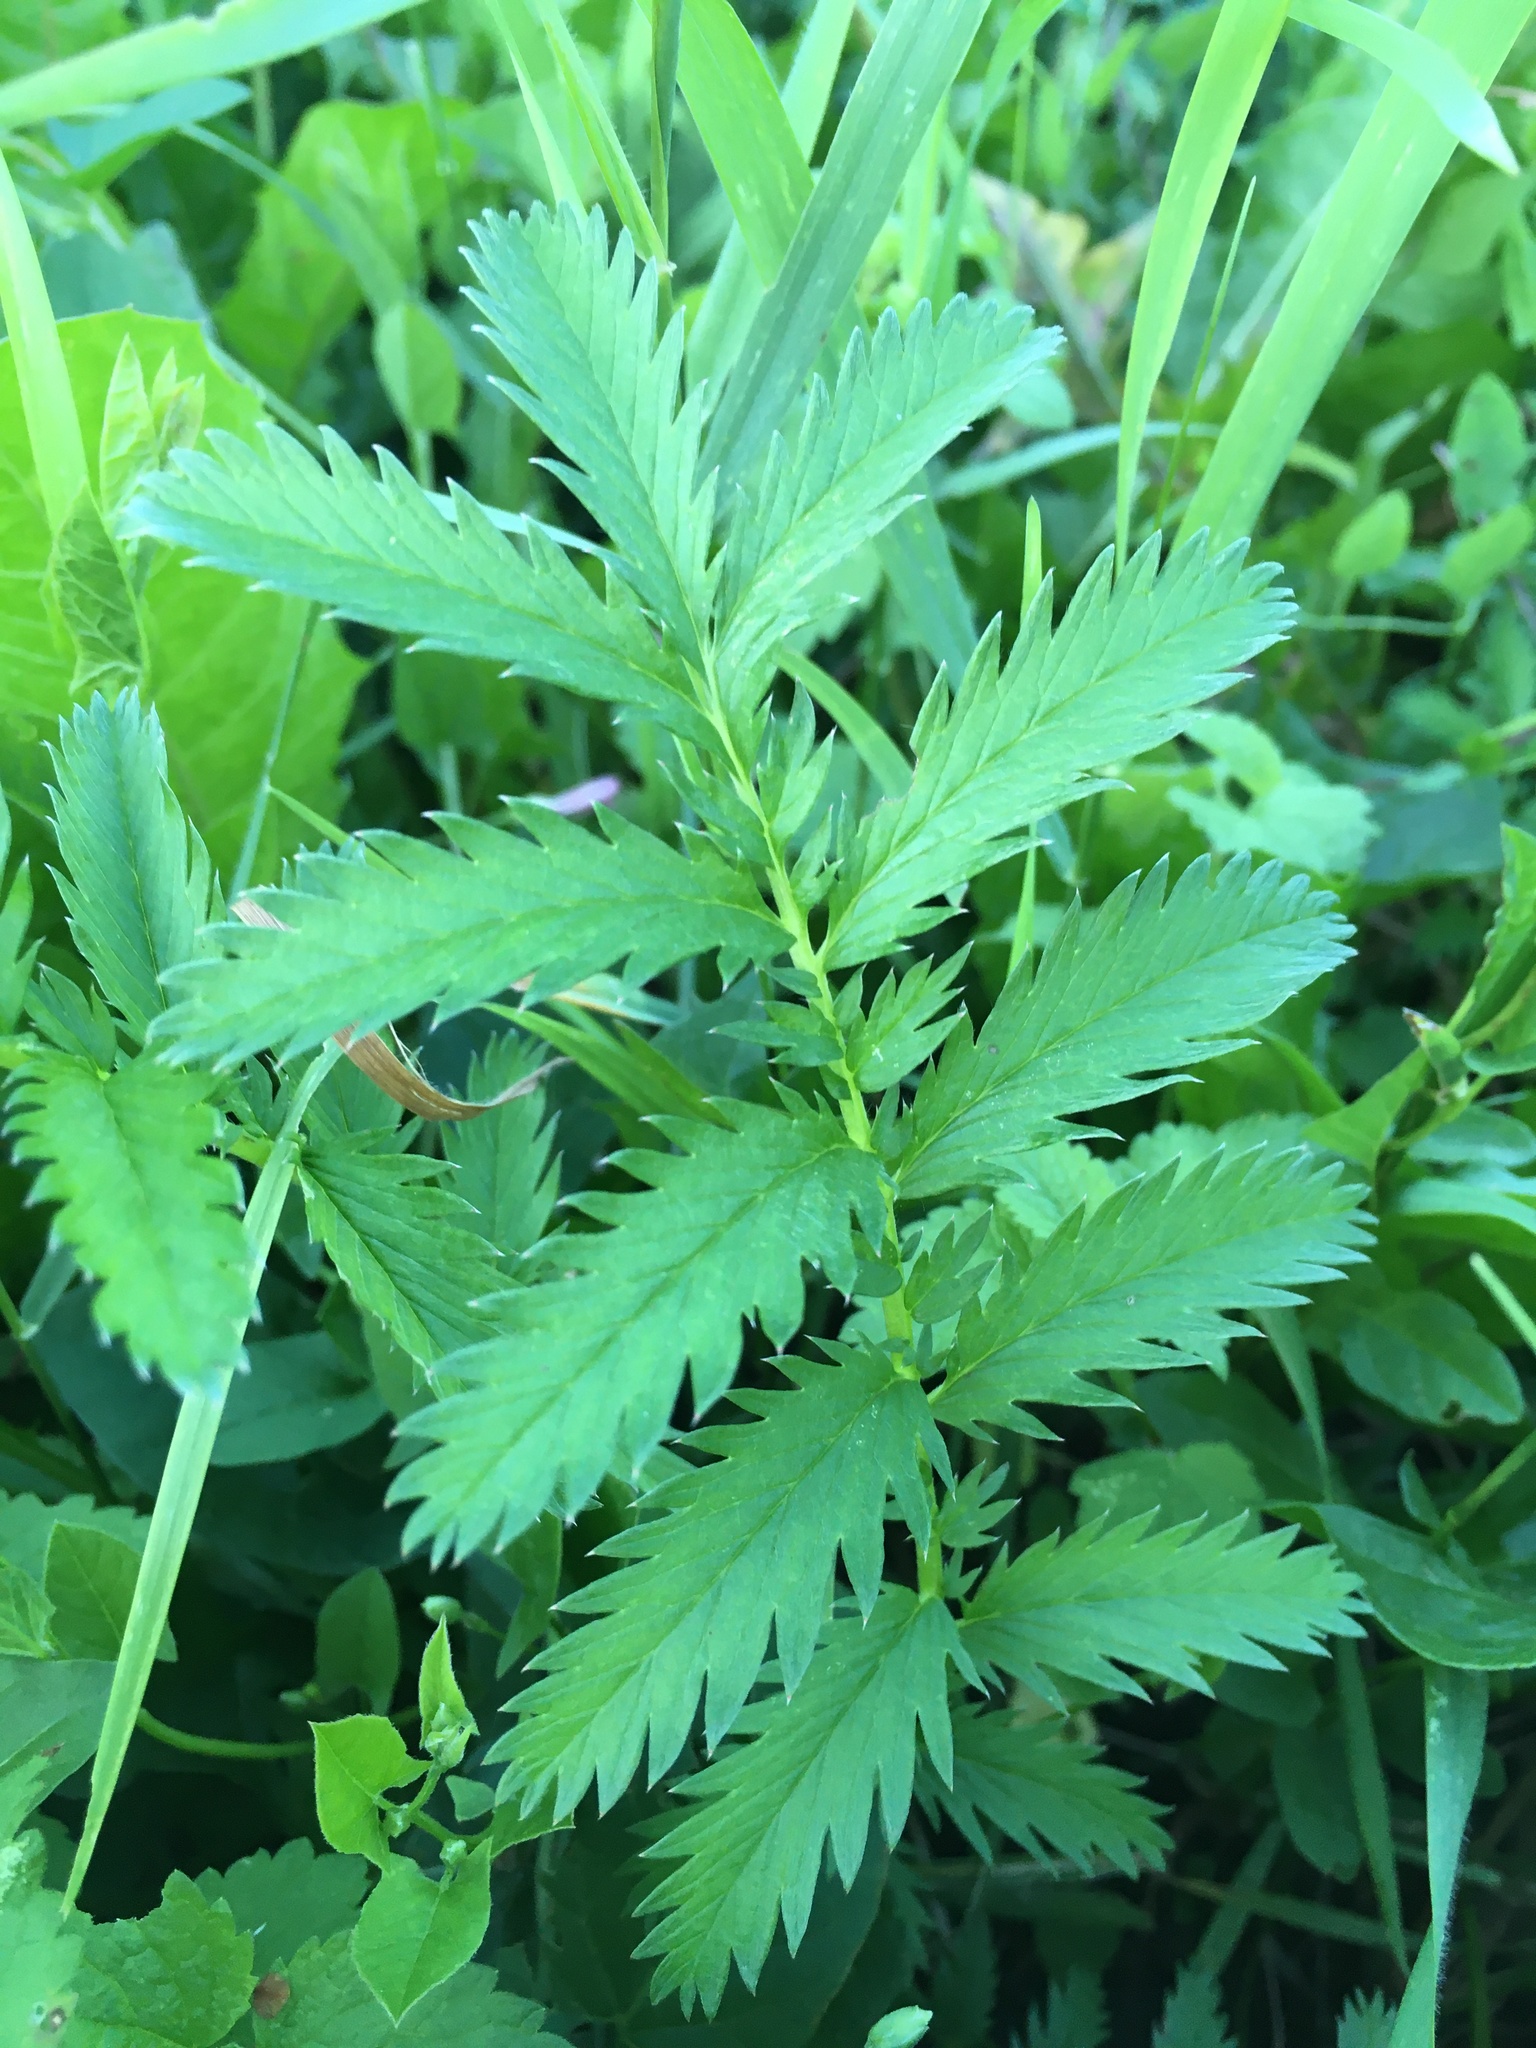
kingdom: Plantae
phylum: Tracheophyta
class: Magnoliopsida
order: Rosales
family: Rosaceae
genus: Argentina
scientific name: Argentina anserina
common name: Common silverweed
